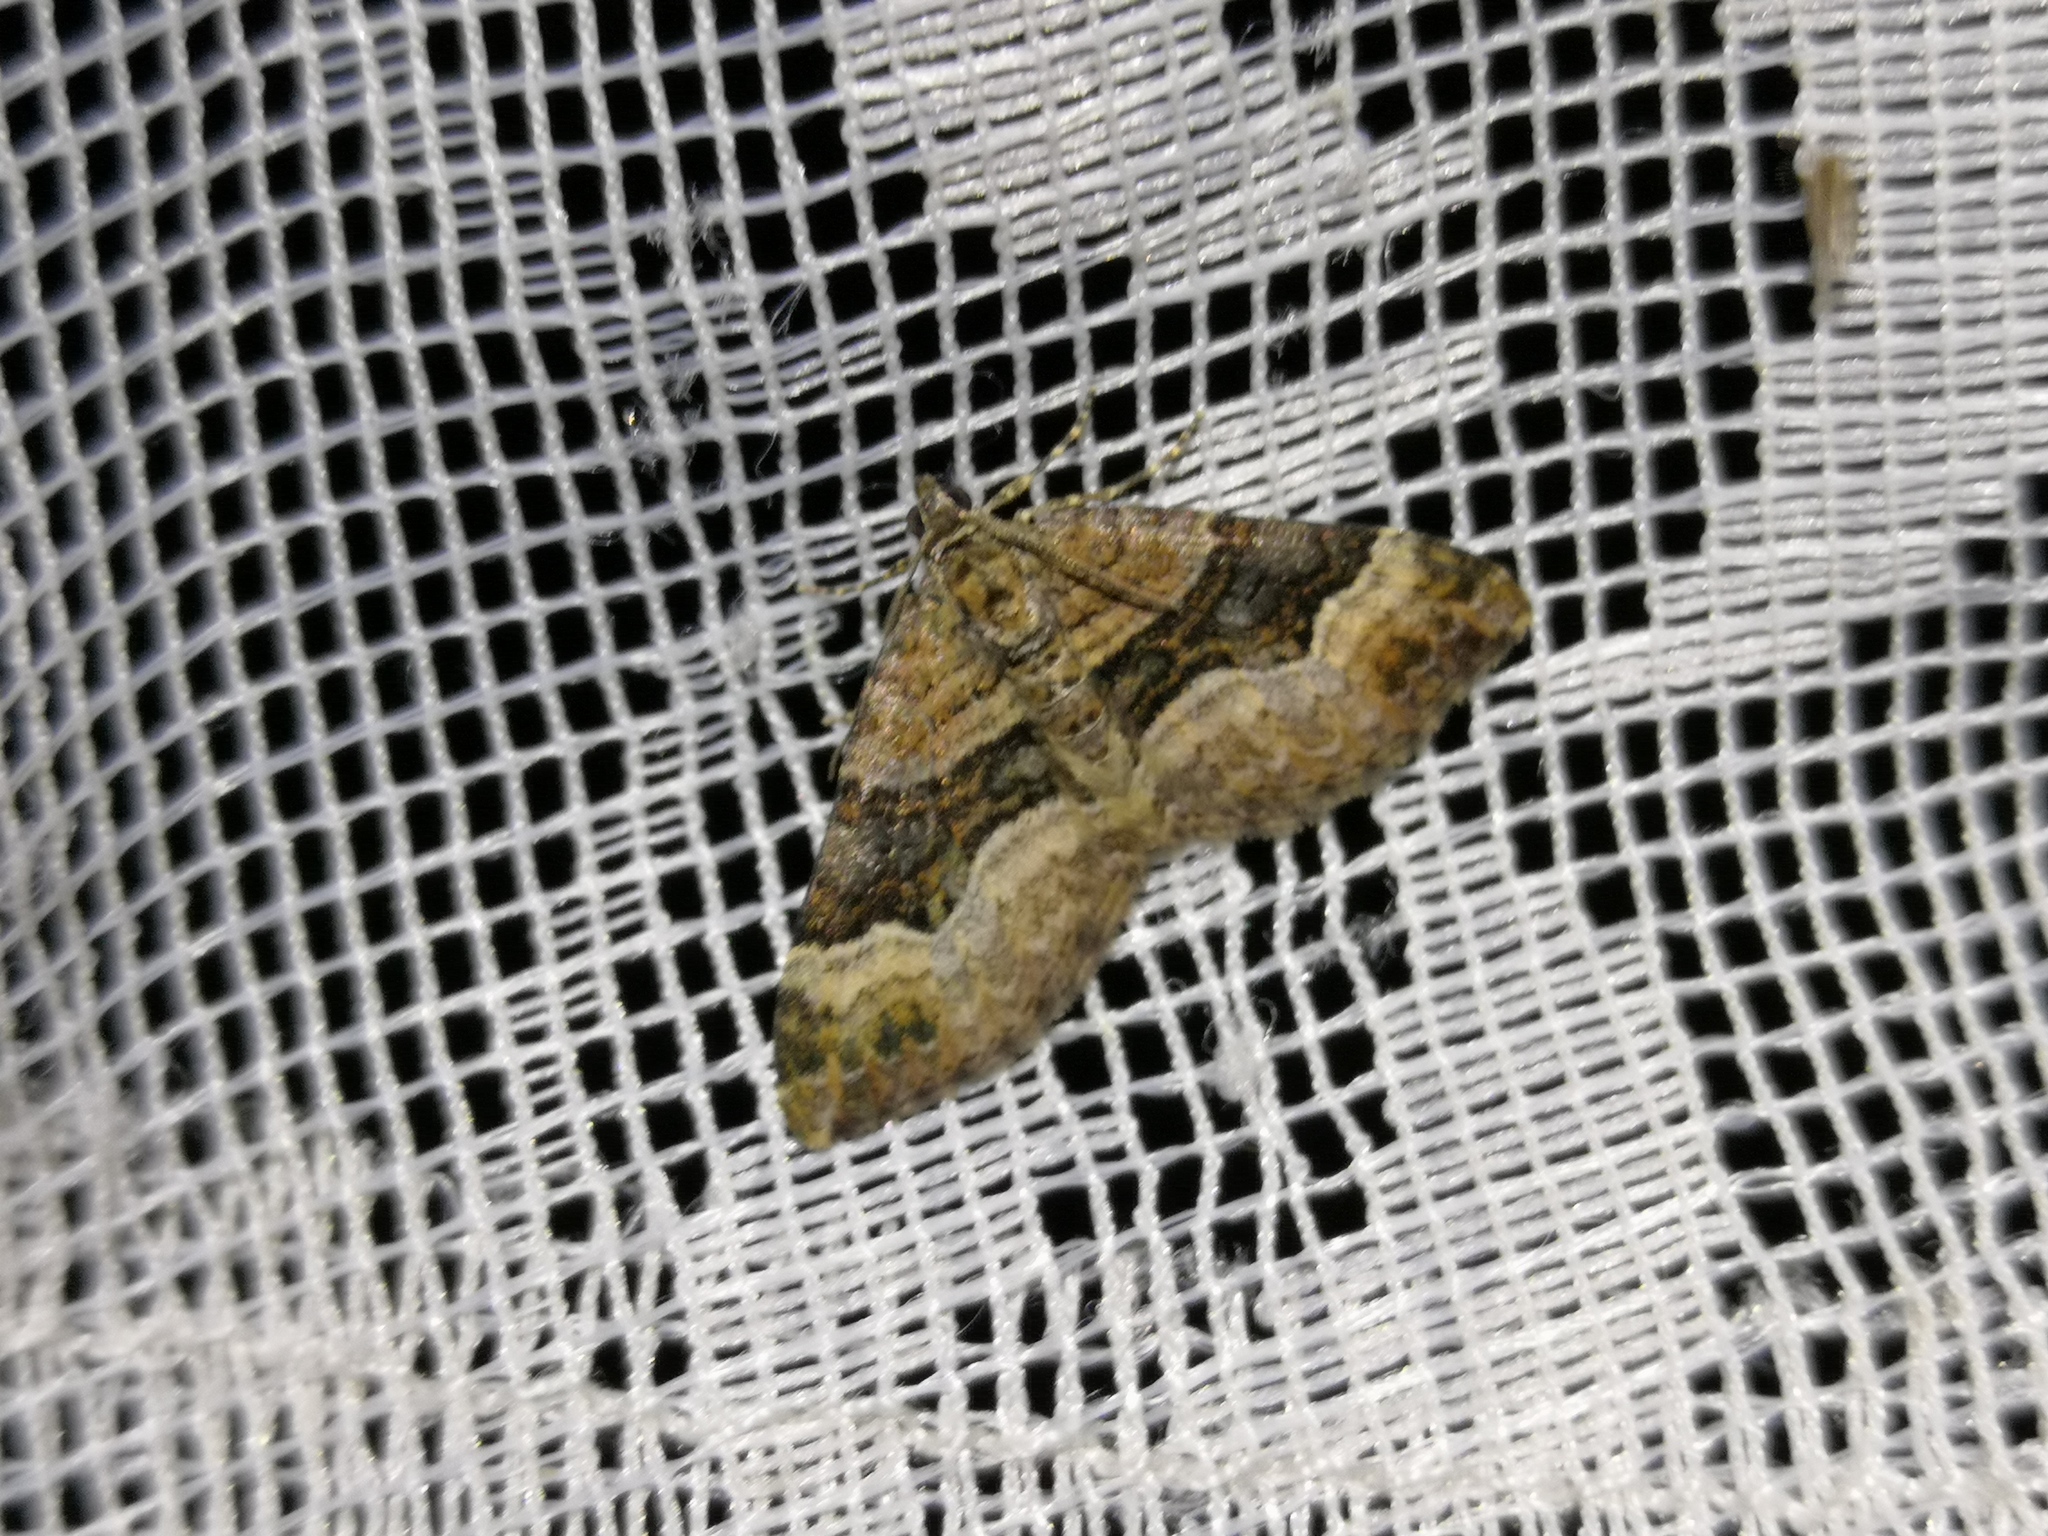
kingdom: Animalia
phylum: Arthropoda
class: Insecta
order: Lepidoptera
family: Geometridae
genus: Xanthorhoe
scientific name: Xanthorhoe biriviata
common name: Balsam carpet
